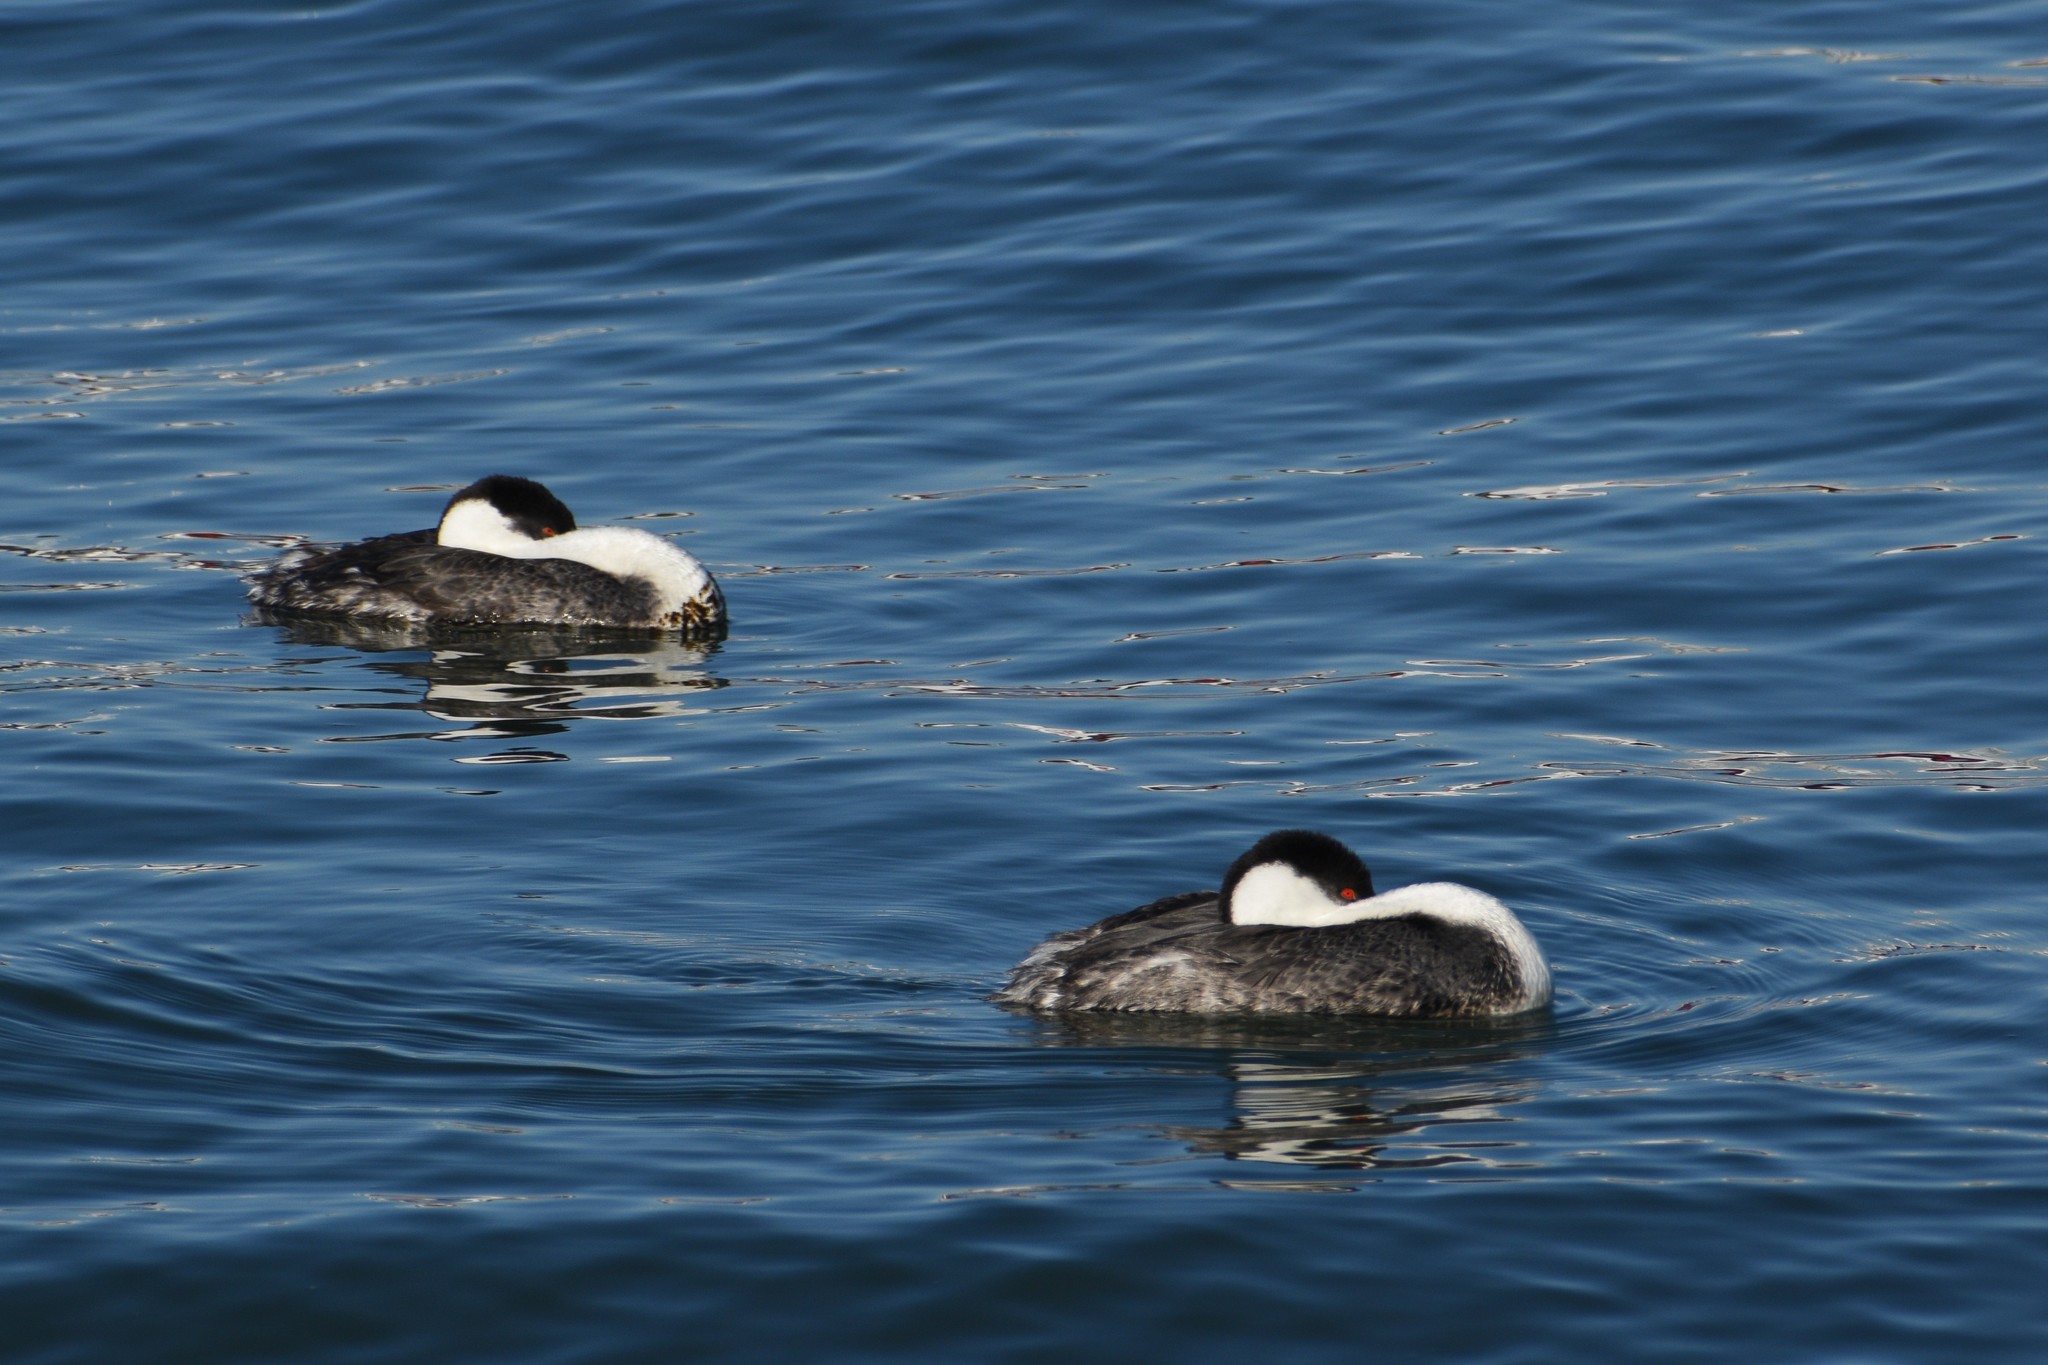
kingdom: Animalia
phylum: Chordata
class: Aves
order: Podicipediformes
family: Podicipedidae
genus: Aechmophorus
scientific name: Aechmophorus occidentalis
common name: Western grebe
